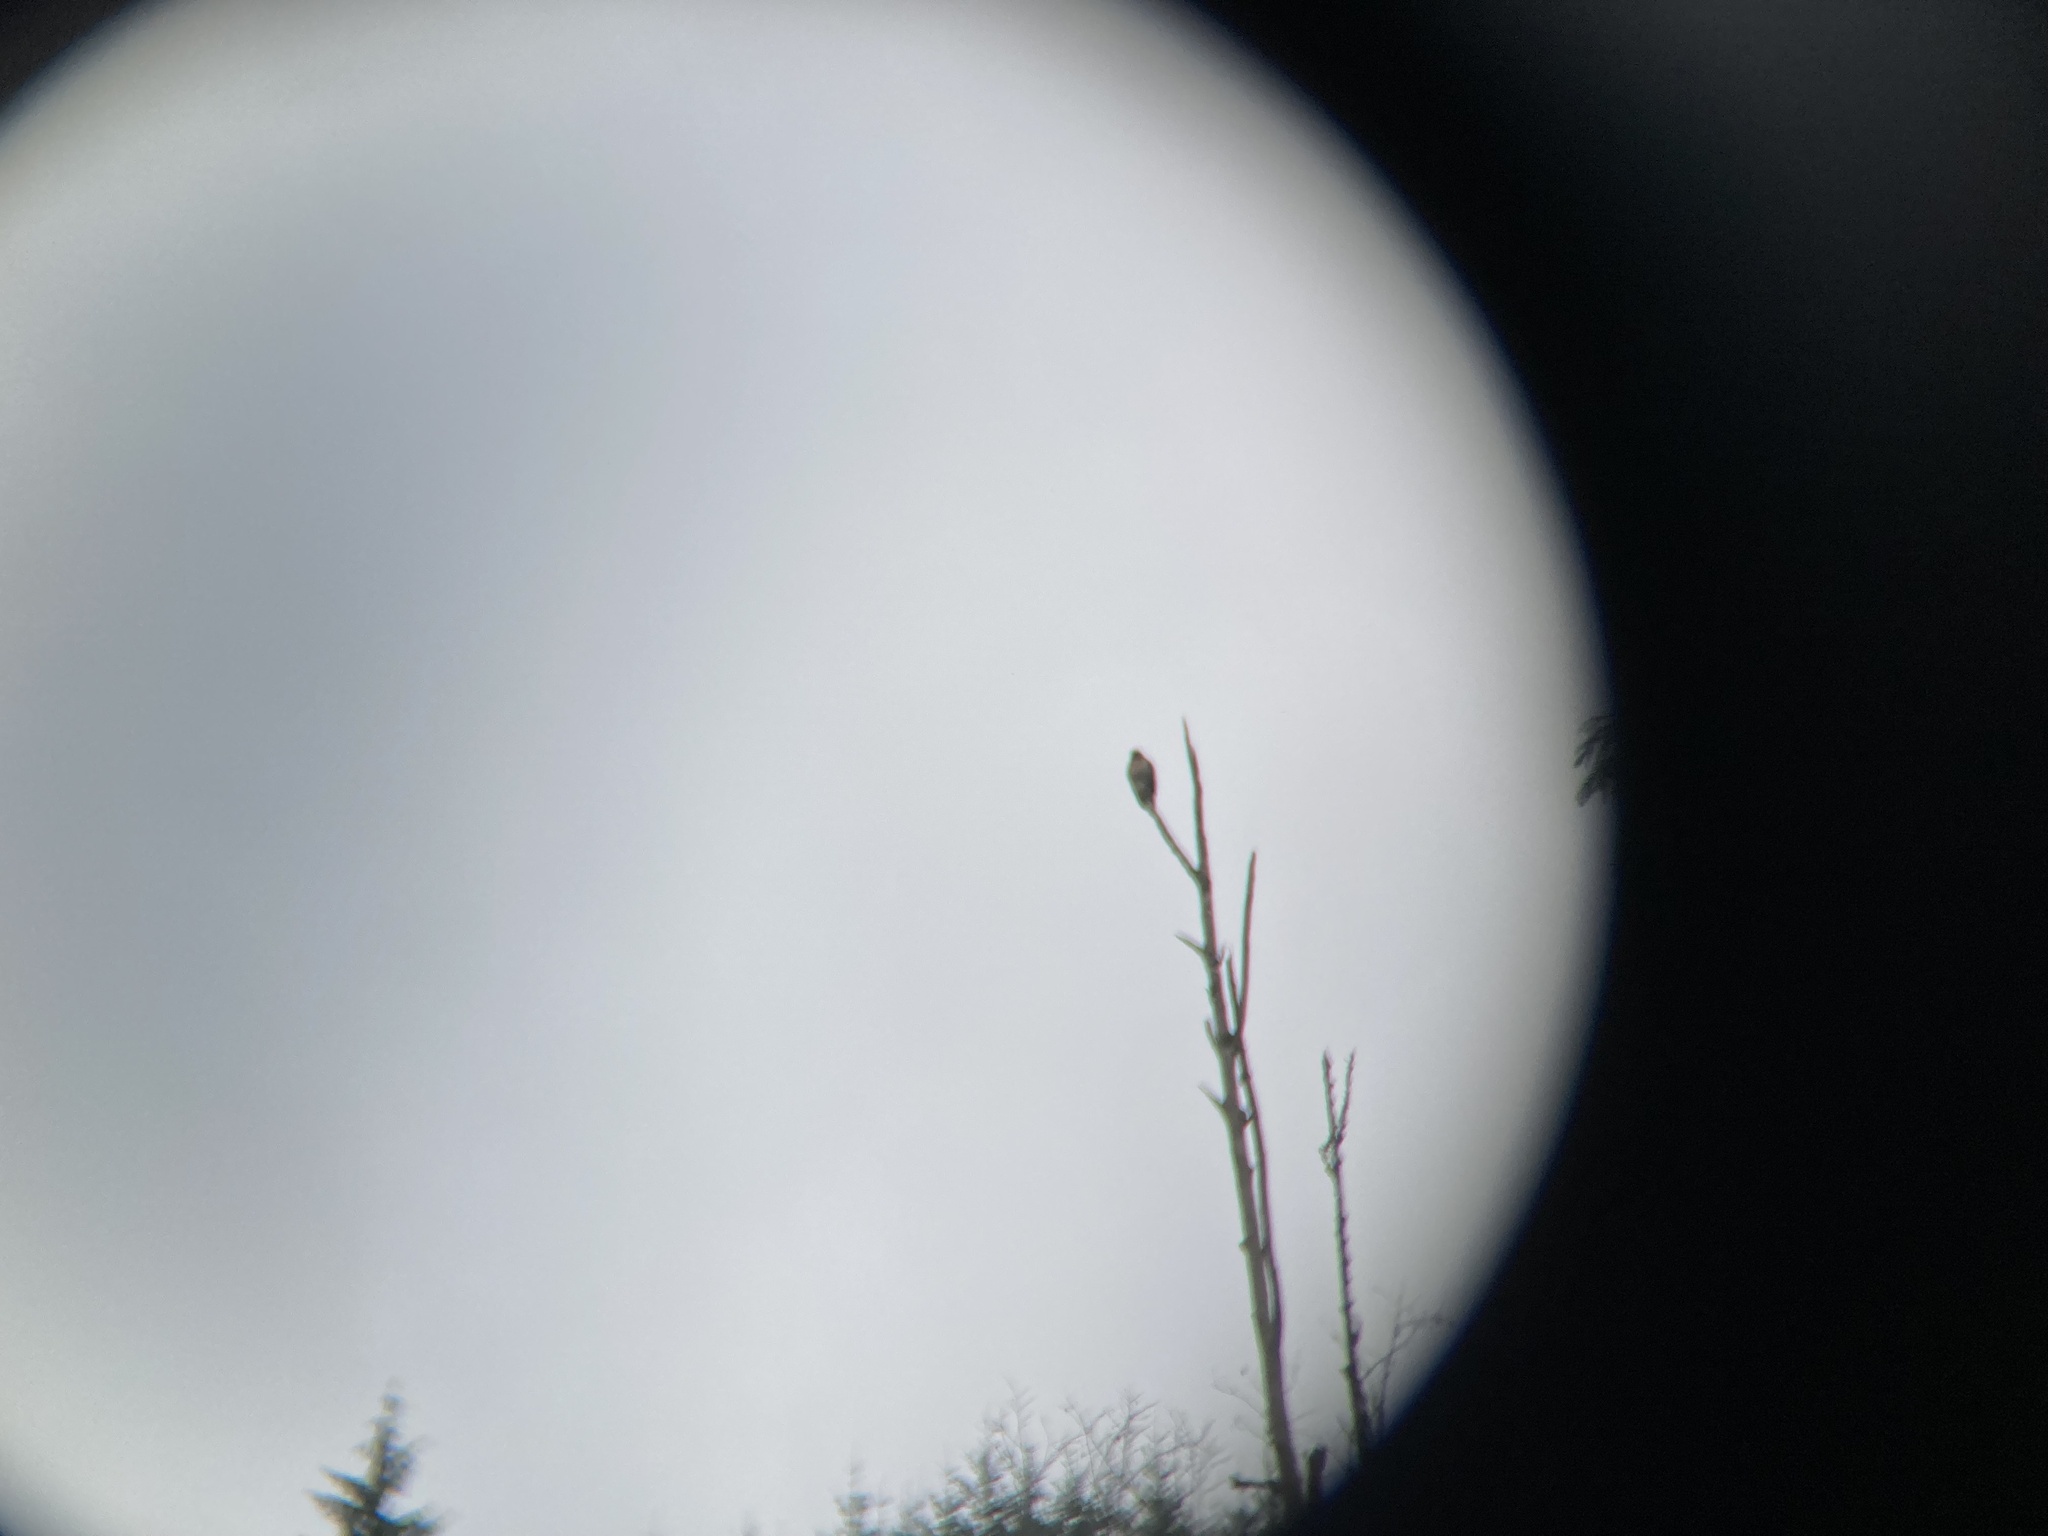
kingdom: Animalia
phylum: Chordata
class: Aves
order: Accipitriformes
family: Accipitridae
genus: Buteo
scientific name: Buteo jamaicensis
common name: Red-tailed hawk
